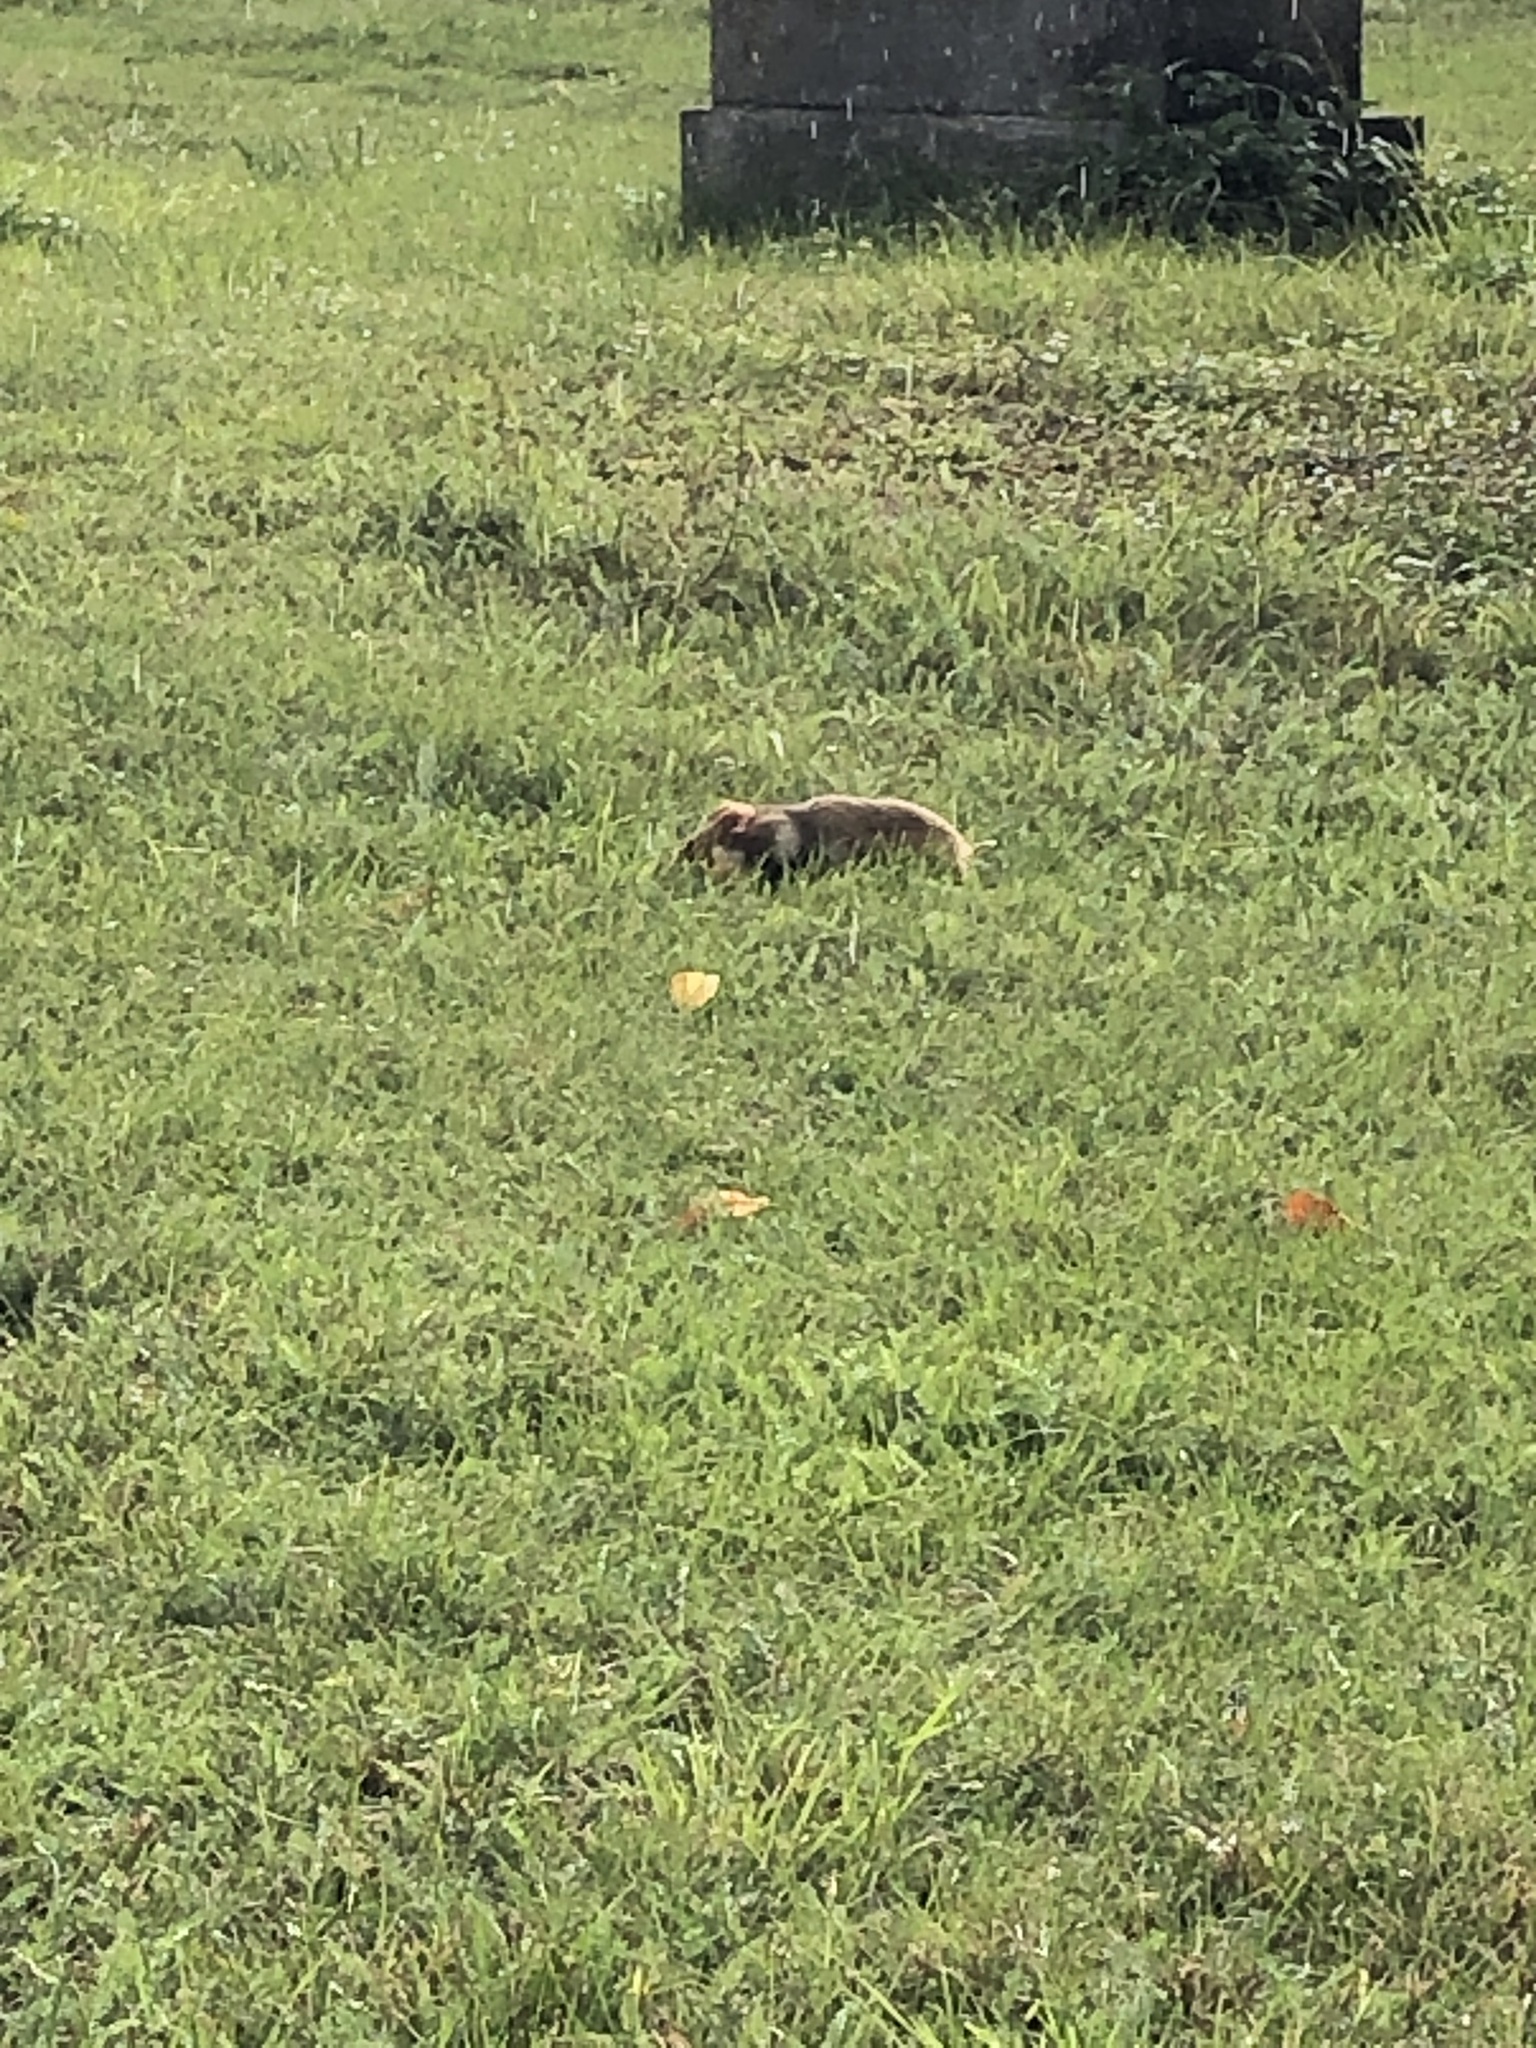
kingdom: Animalia
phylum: Chordata
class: Mammalia
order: Rodentia
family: Cricetidae
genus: Cricetus
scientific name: Cricetus cricetus
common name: Common hamster
